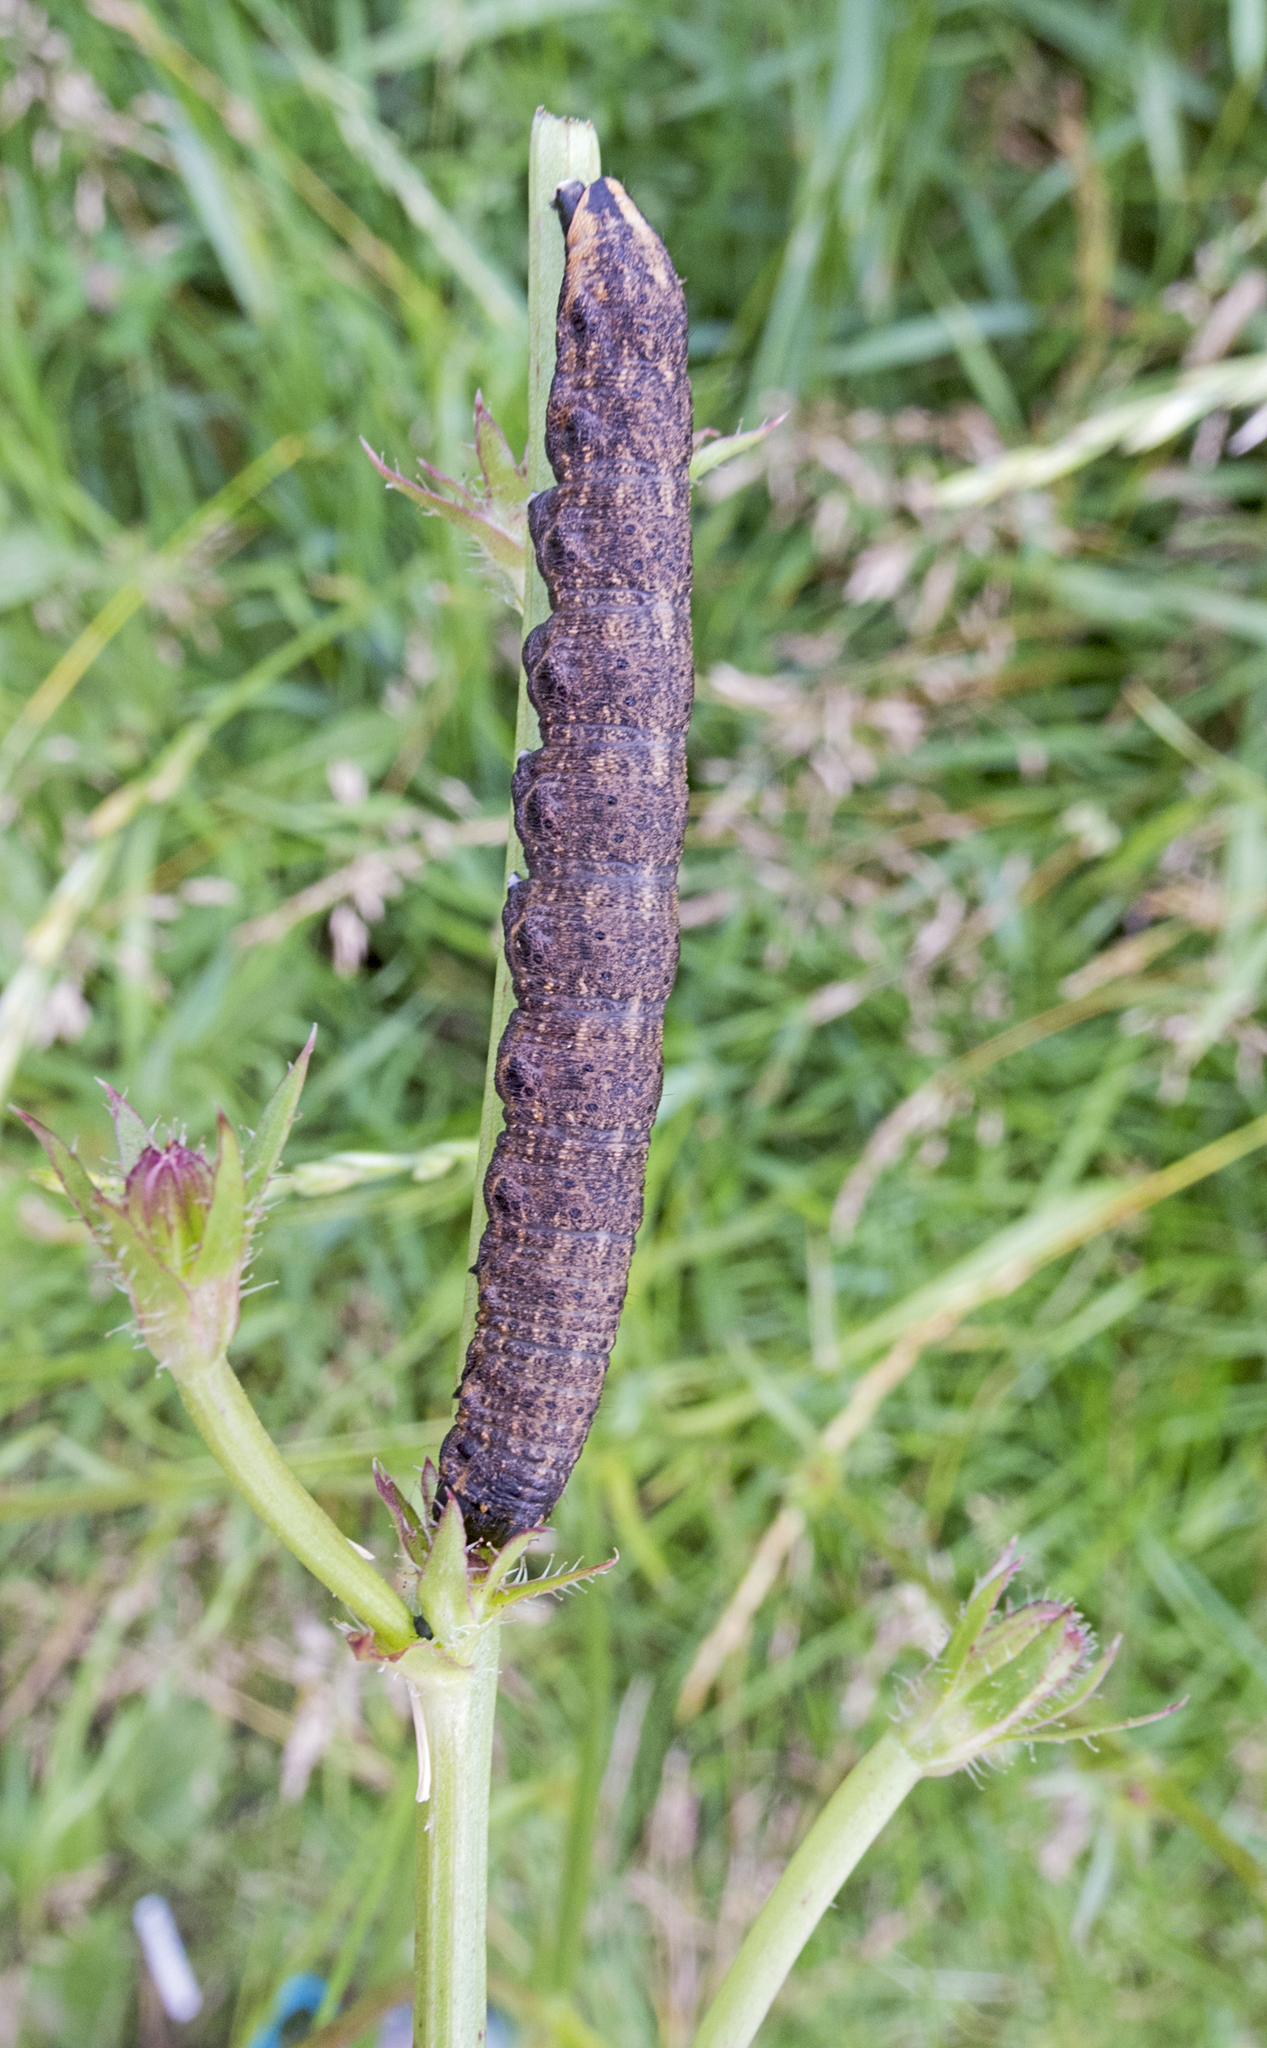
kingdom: Animalia
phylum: Arthropoda
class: Insecta
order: Lepidoptera
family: Noctuidae
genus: Cucullia
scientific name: Cucullia umbratica
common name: Shark
